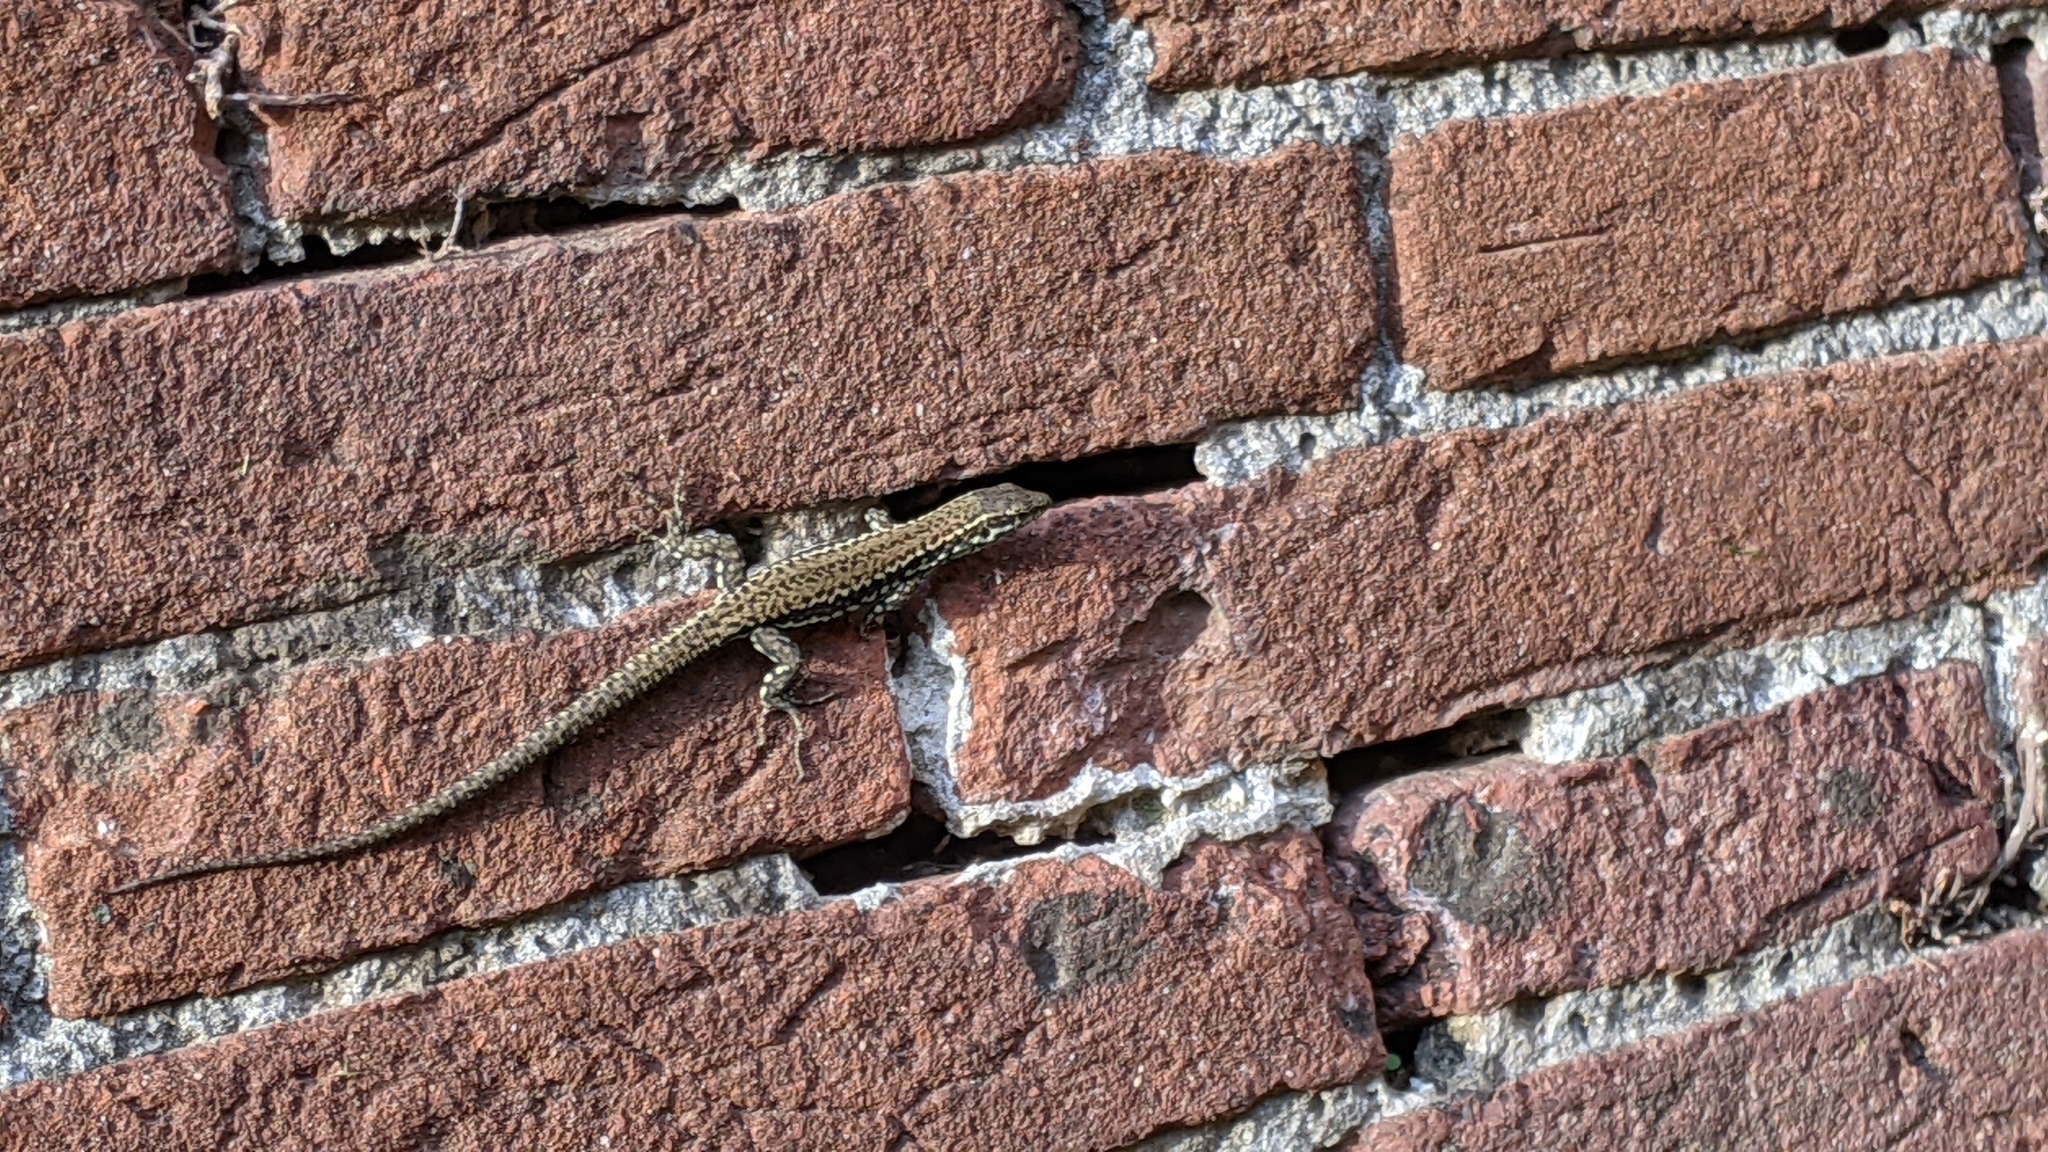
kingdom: Animalia
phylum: Chordata
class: Squamata
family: Lacertidae
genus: Podarcis
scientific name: Podarcis muralis
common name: Common wall lizard
